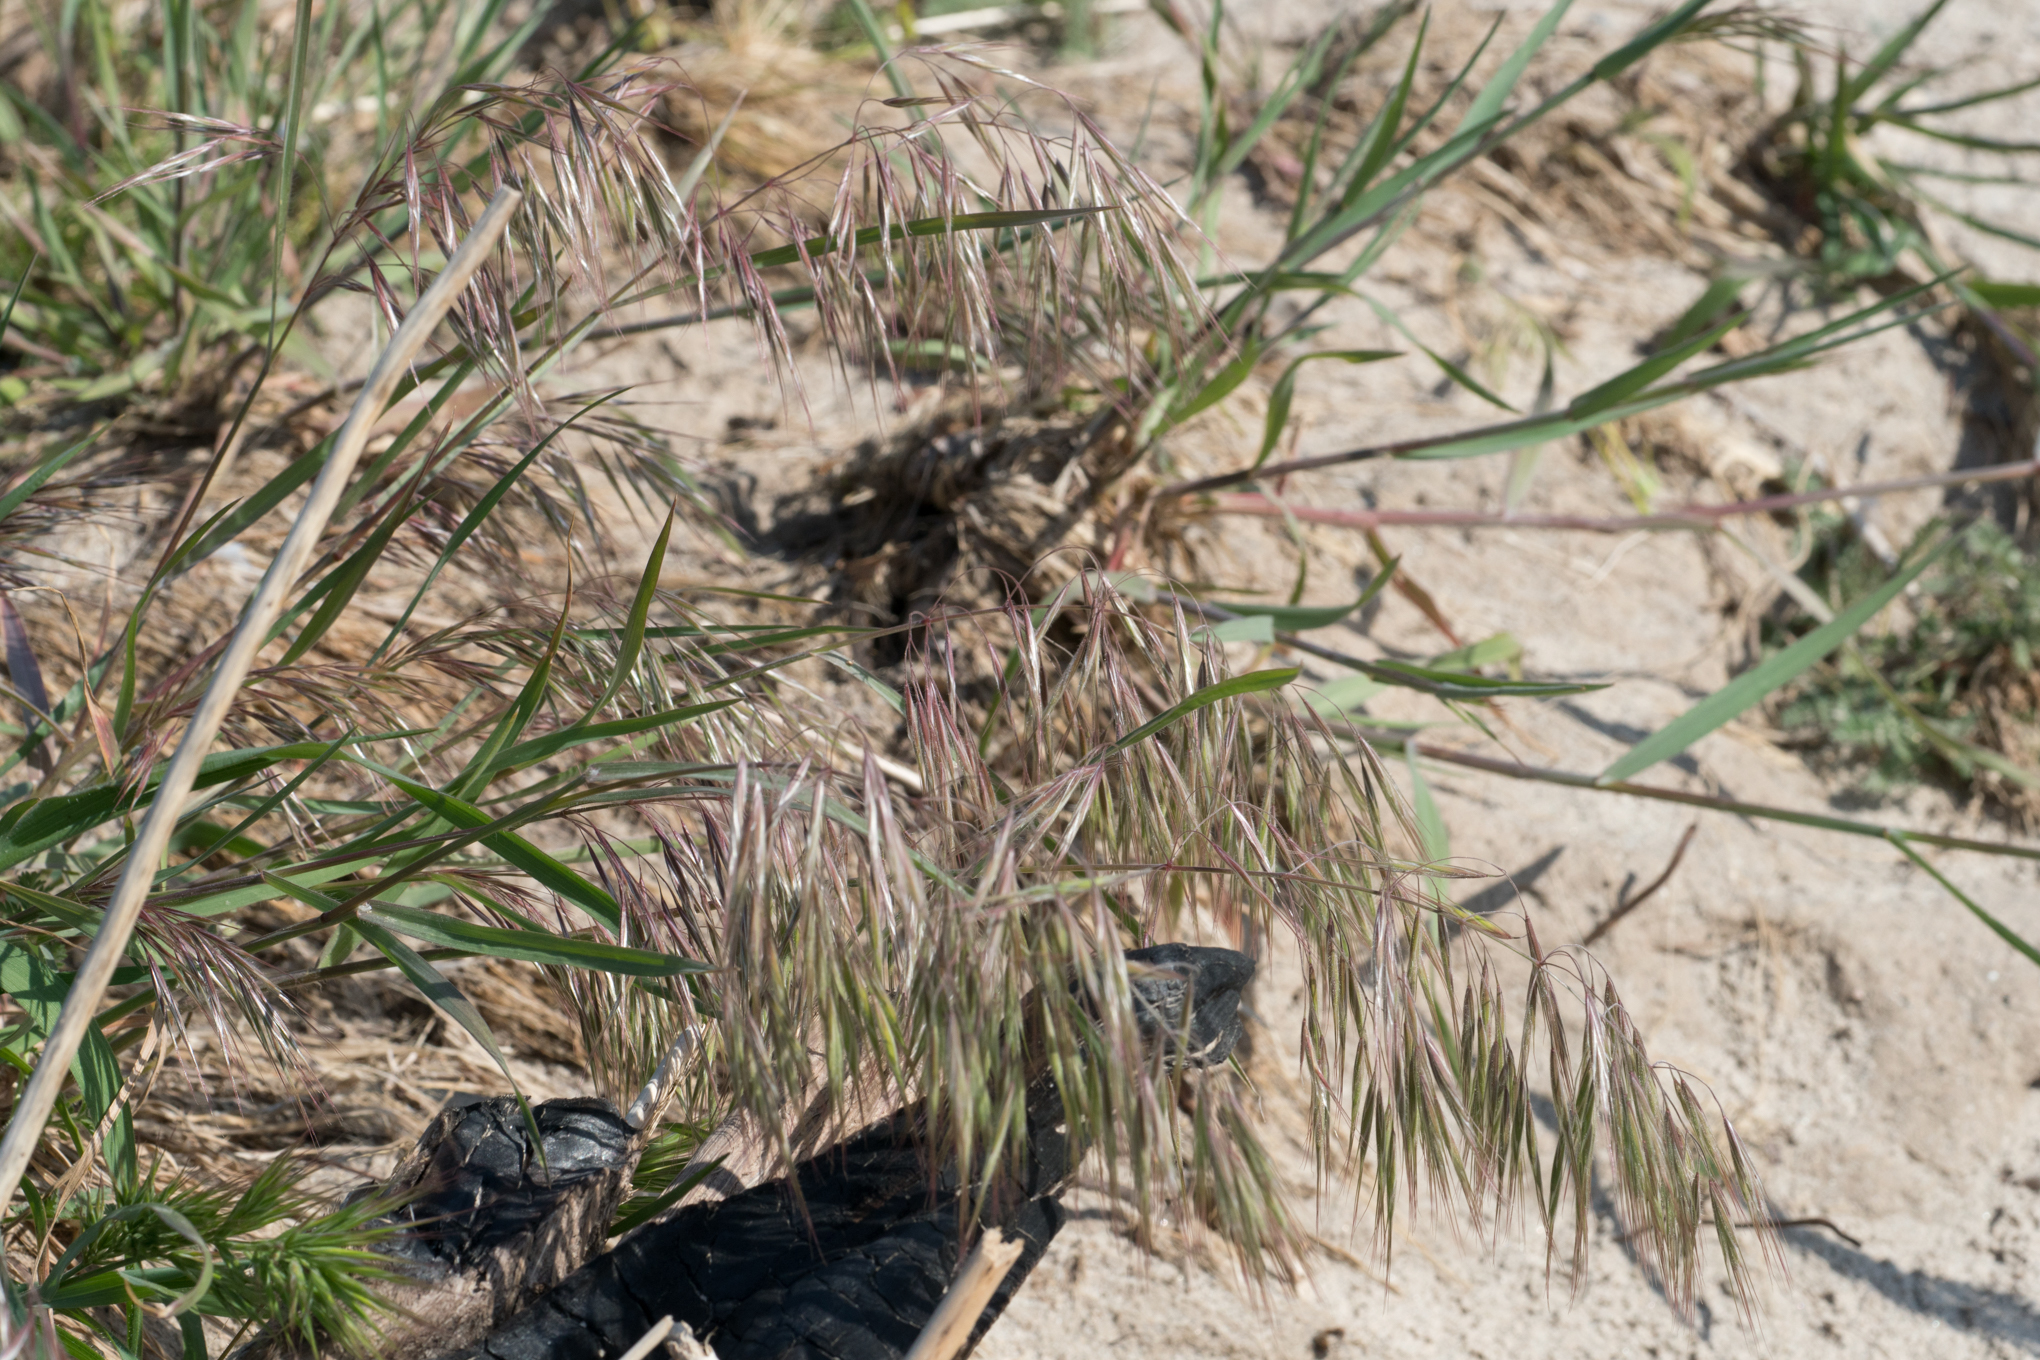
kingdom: Plantae
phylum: Tracheophyta
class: Liliopsida
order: Poales
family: Poaceae
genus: Bromus
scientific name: Bromus tectorum
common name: Cheatgrass
